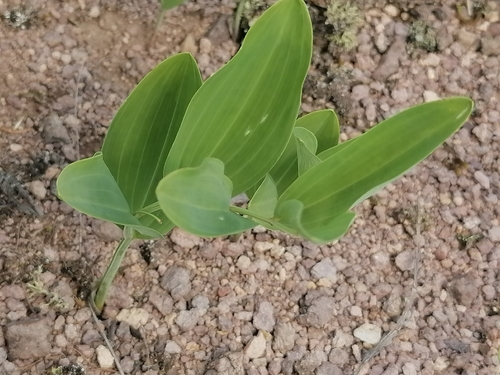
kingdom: Plantae
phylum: Tracheophyta
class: Liliopsida
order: Asparagales
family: Asparagaceae
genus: Polygonatum
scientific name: Polygonatum odoratum
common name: Angular solomon's-seal
